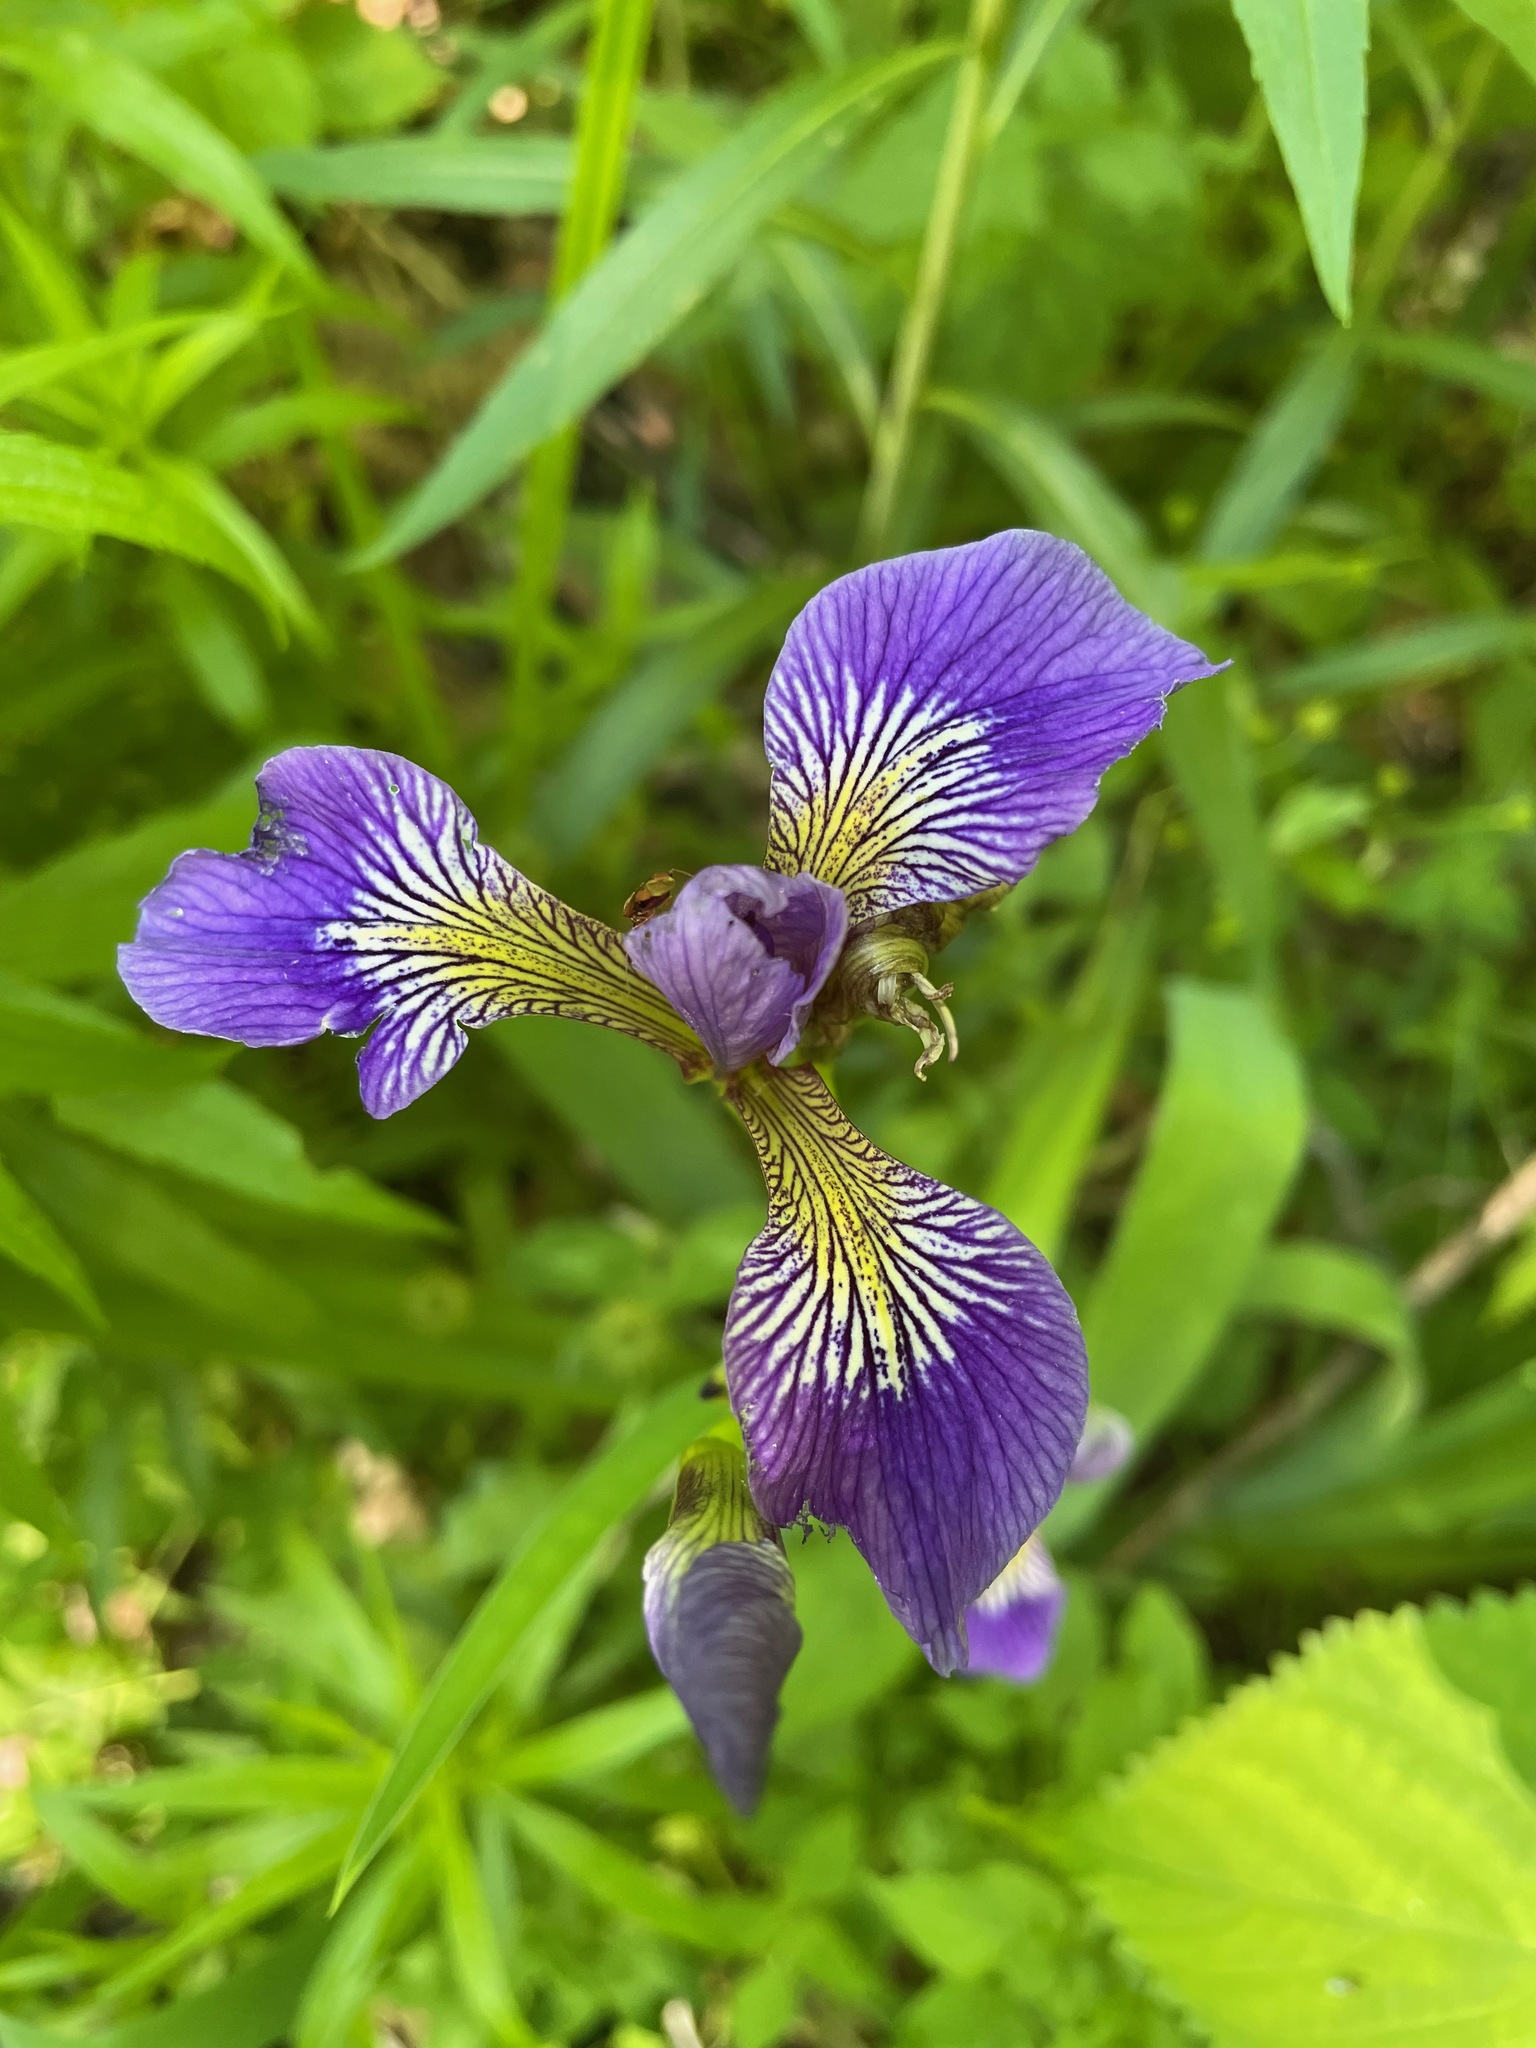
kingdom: Plantae
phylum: Tracheophyta
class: Liliopsida
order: Asparagales
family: Iridaceae
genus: Iris
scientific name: Iris versicolor
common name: Purple iris
